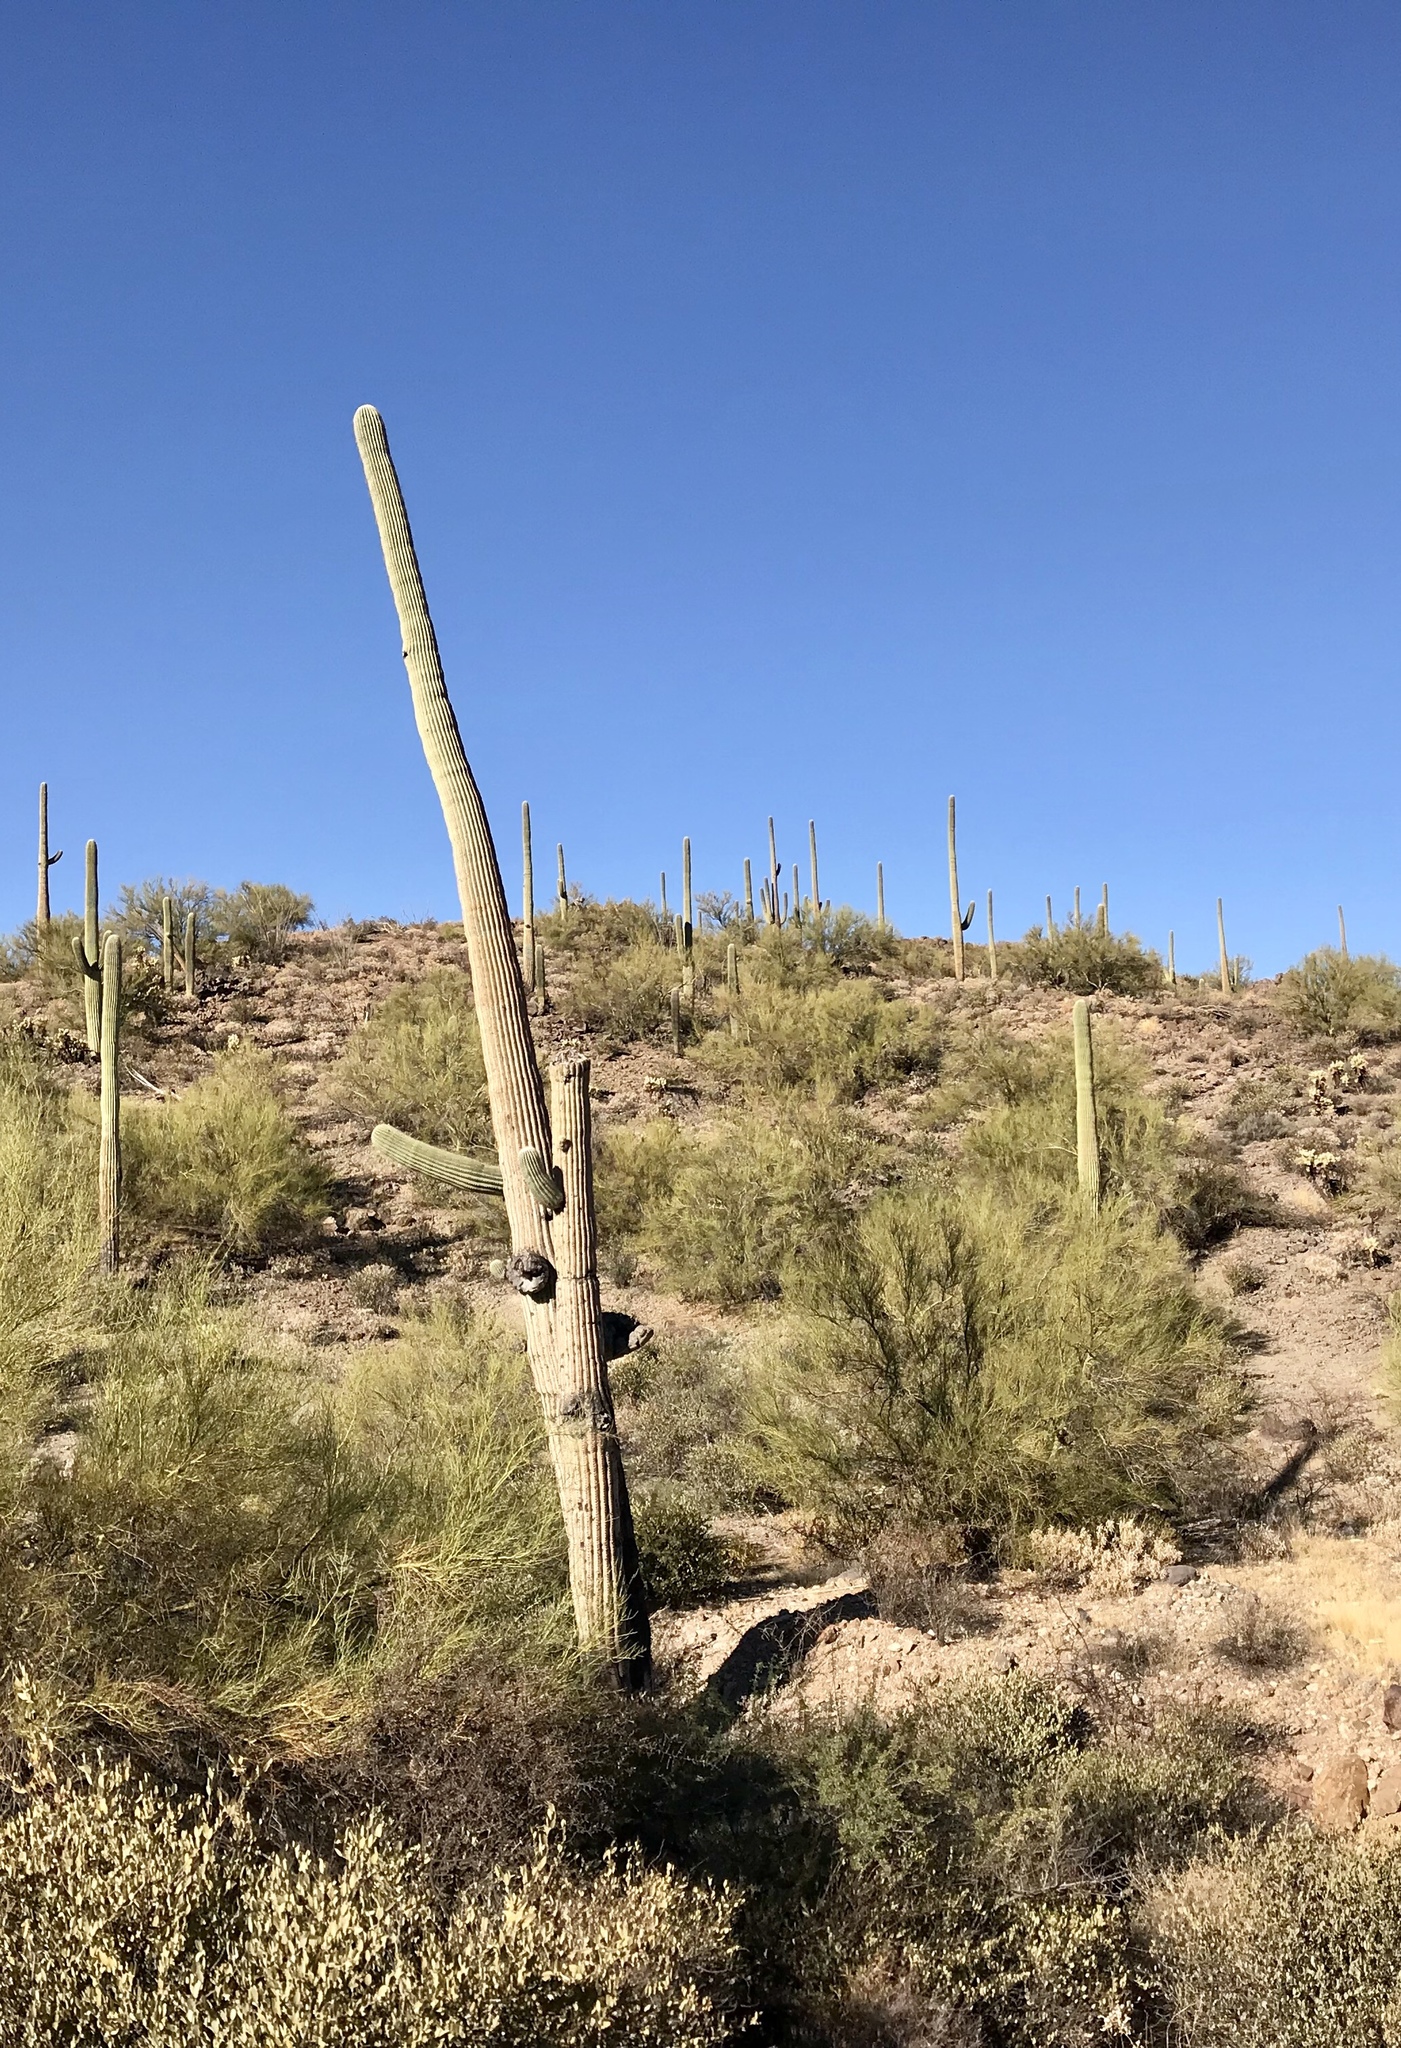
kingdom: Plantae
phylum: Tracheophyta
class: Magnoliopsida
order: Caryophyllales
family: Cactaceae
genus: Carnegiea
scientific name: Carnegiea gigantea
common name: Saguaro
